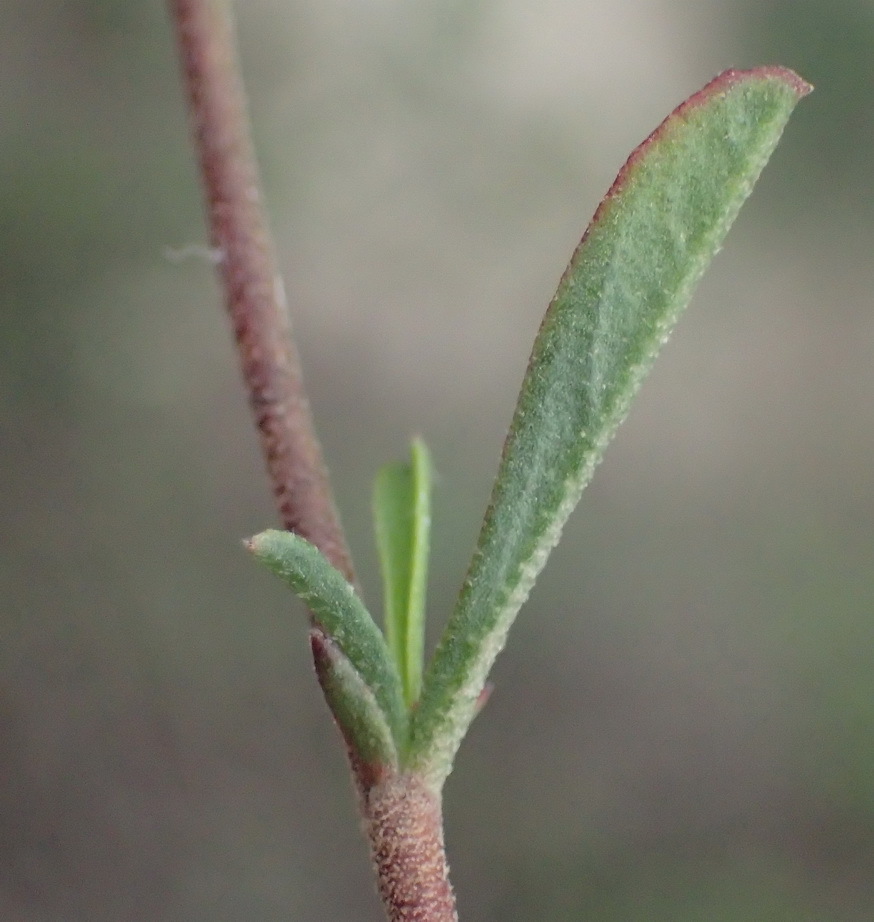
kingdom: Plantae
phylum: Tracheophyta
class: Magnoliopsida
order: Malvales
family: Malvaceae
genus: Hermannia
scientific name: Hermannia flammea
